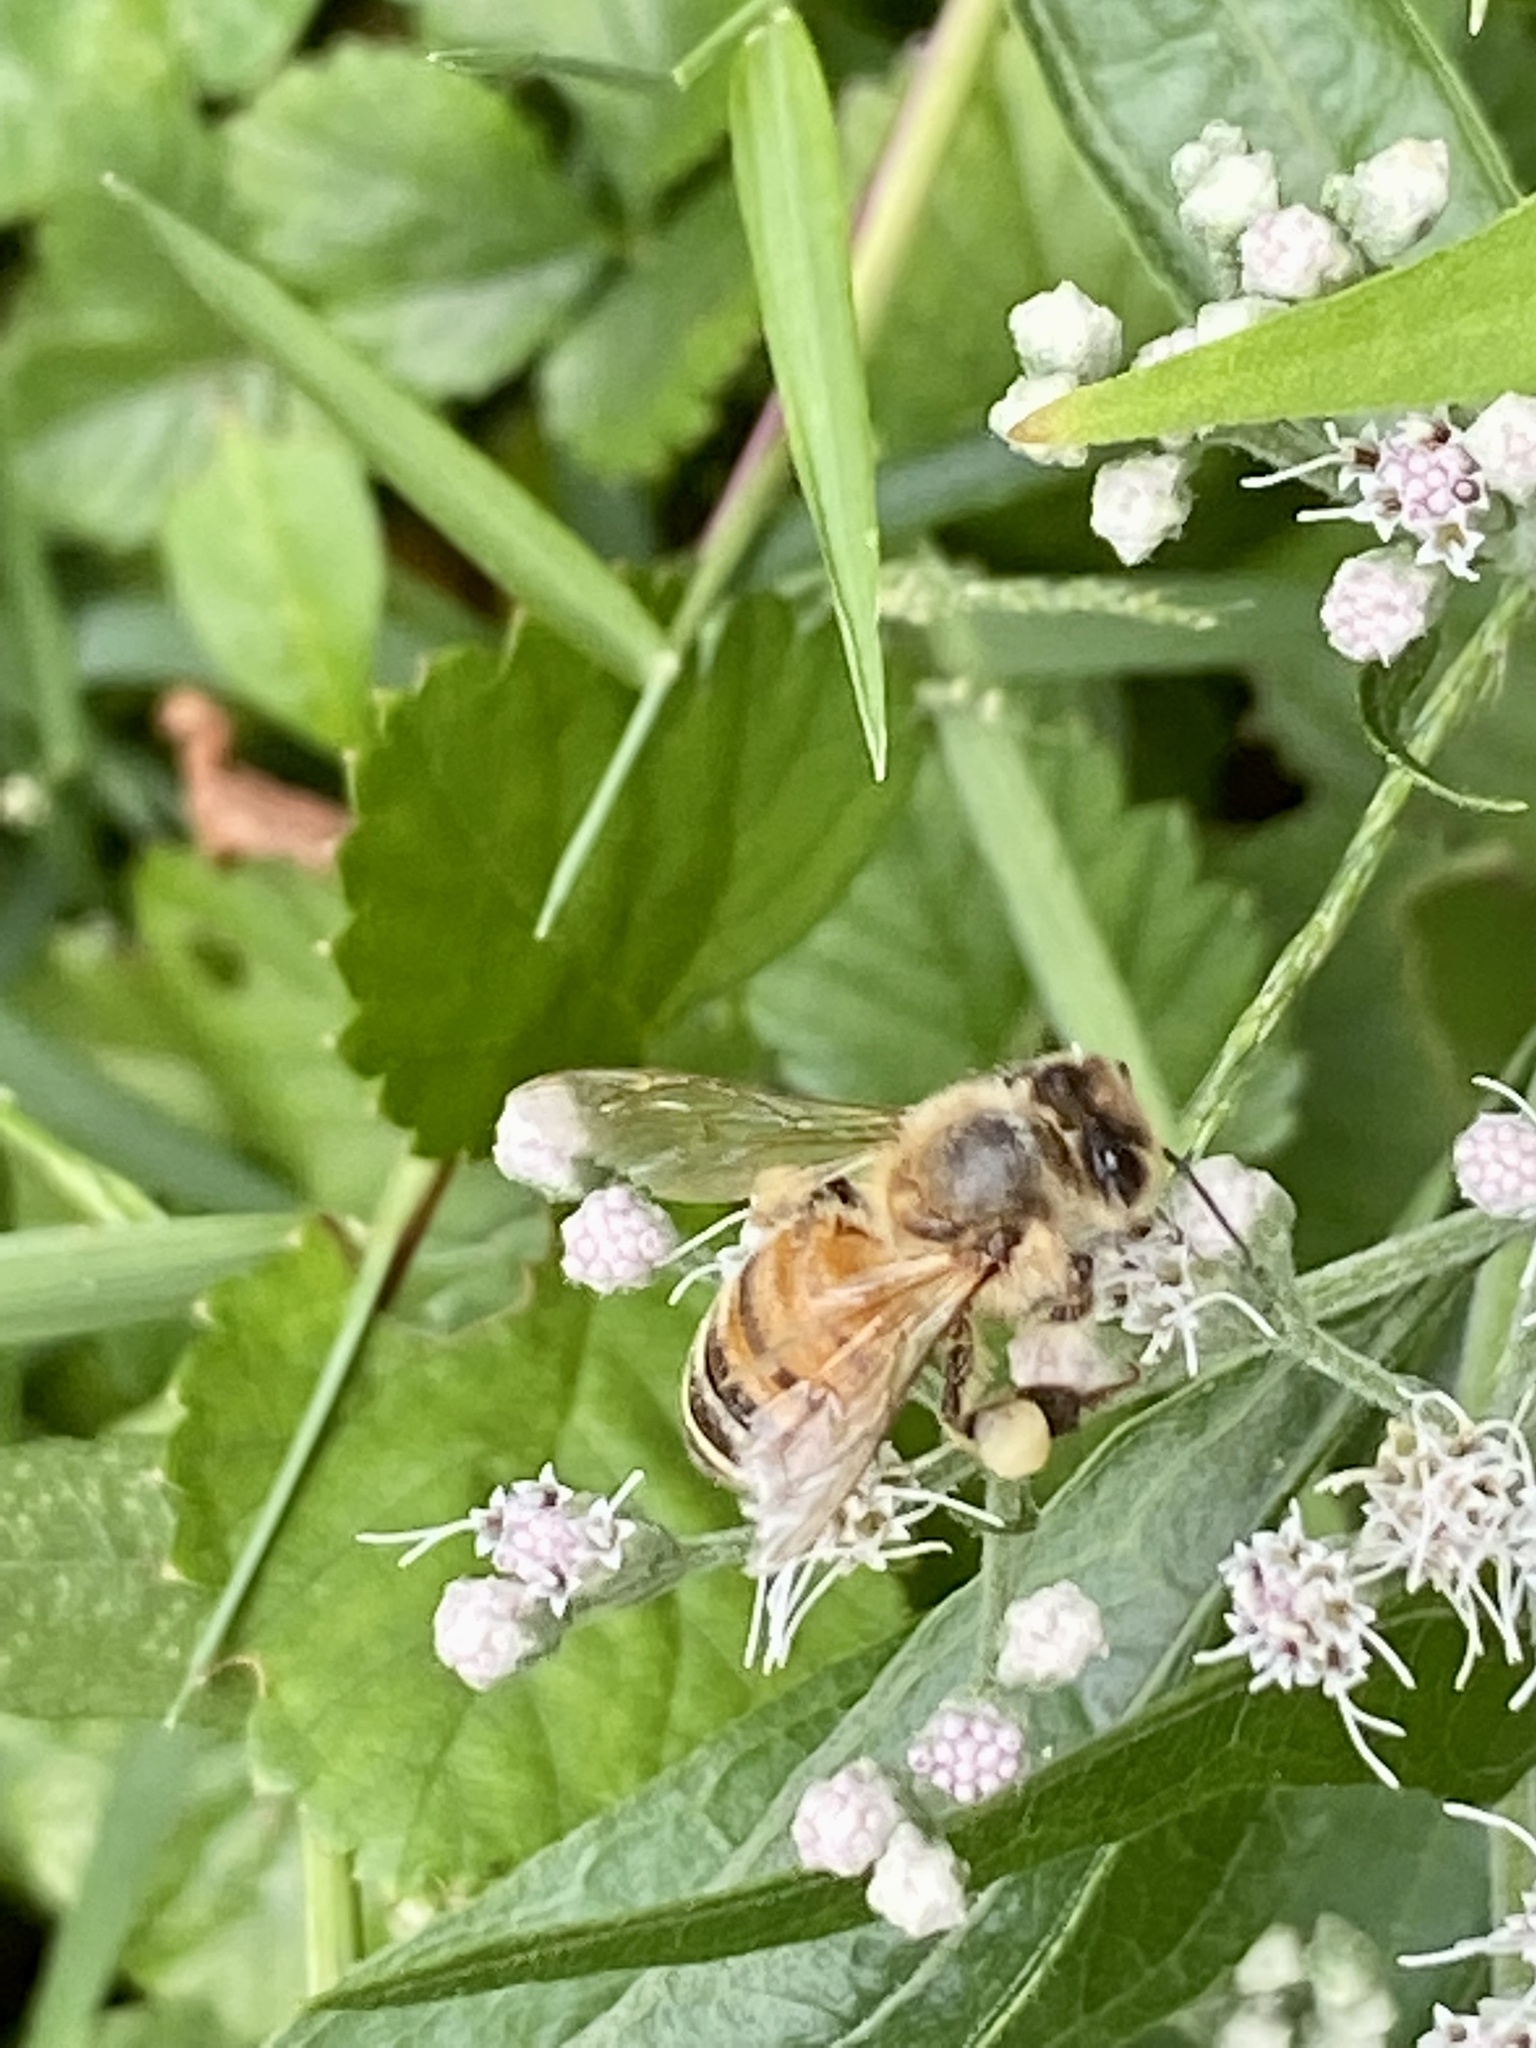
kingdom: Animalia
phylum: Arthropoda
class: Insecta
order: Hymenoptera
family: Apidae
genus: Apis
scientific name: Apis mellifera
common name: Honey bee
